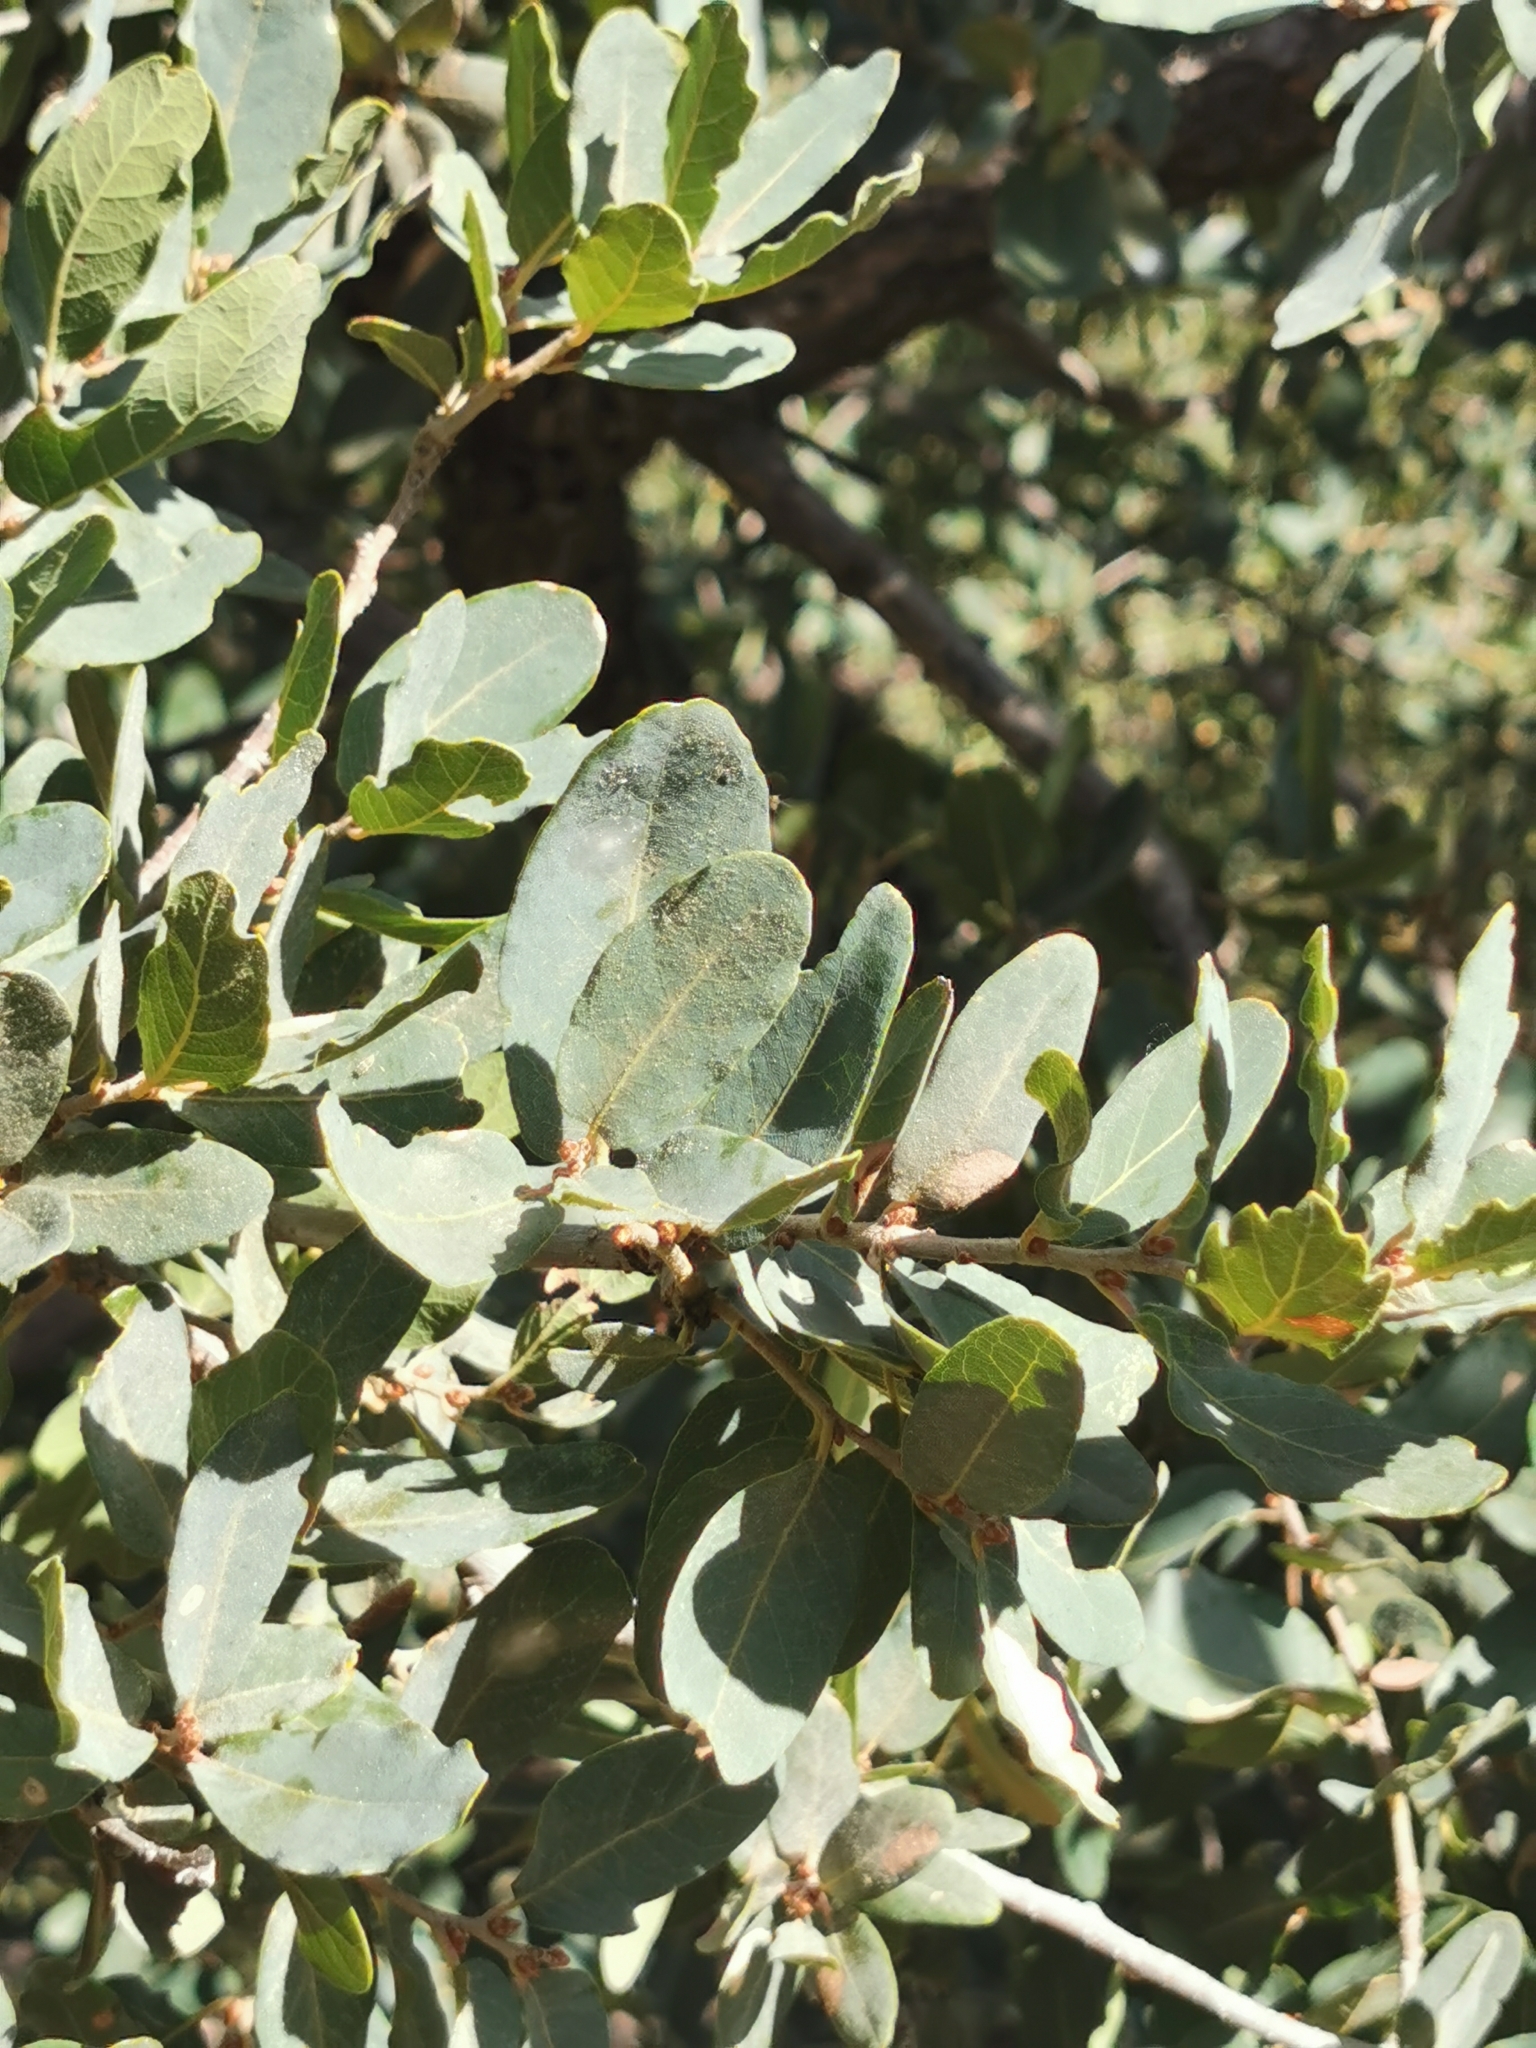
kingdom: Plantae
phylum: Tracheophyta
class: Magnoliopsida
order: Fagales
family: Fagaceae
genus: Quercus
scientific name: Quercus oblongifolia
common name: Mexican blue oak
